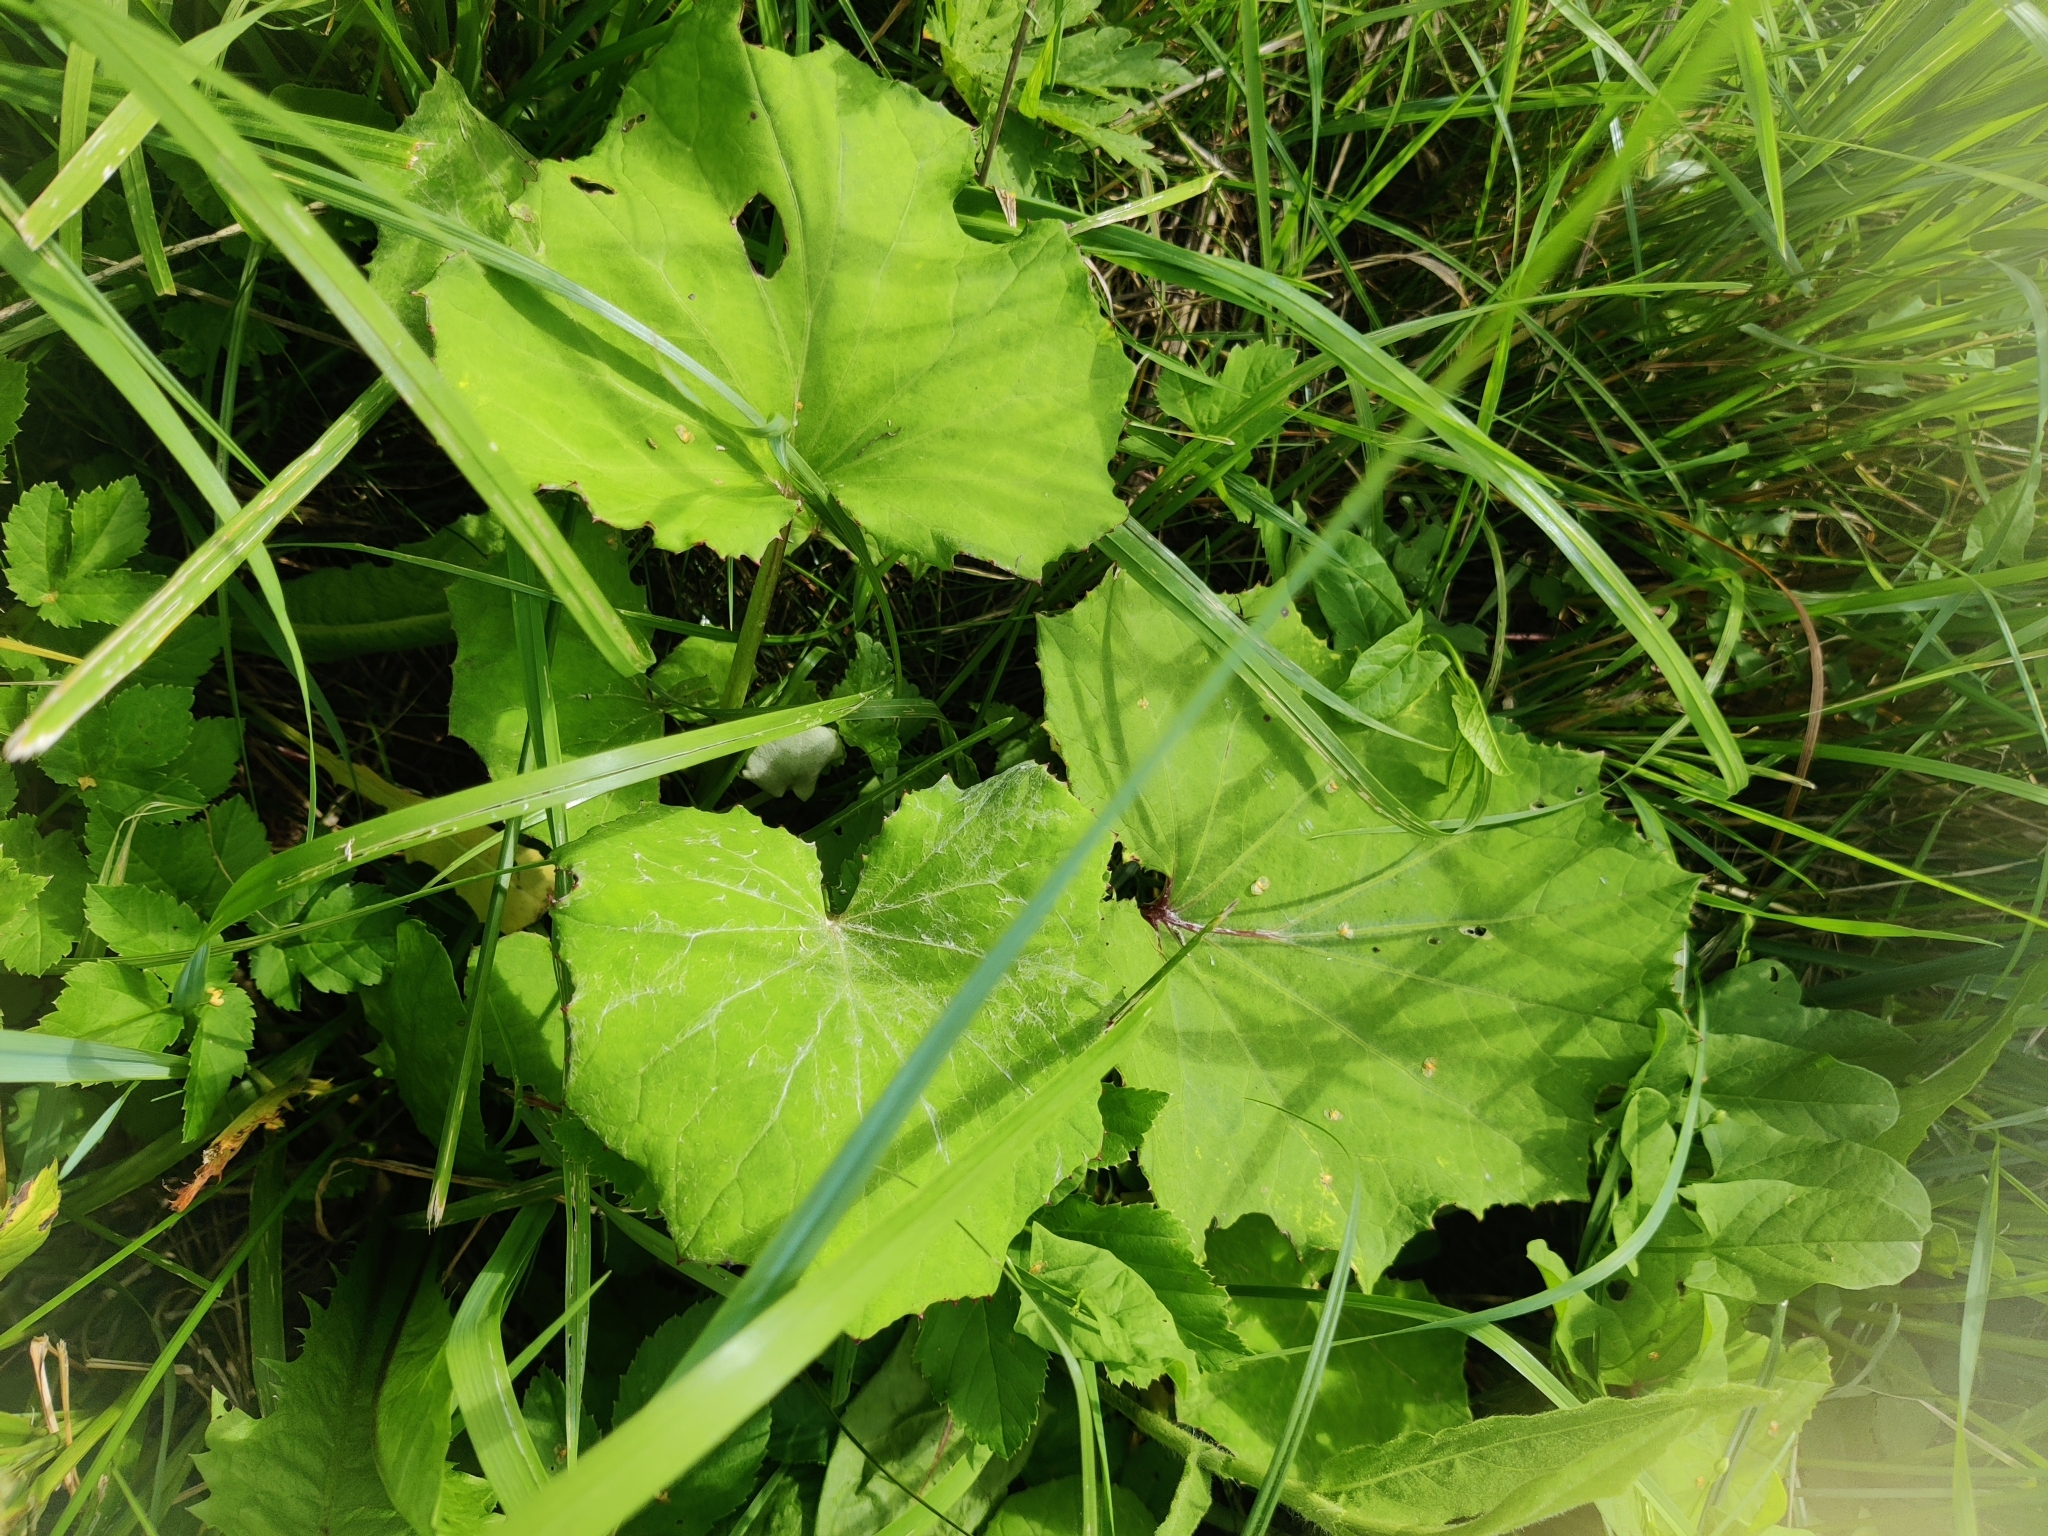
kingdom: Plantae
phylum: Tracheophyta
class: Magnoliopsida
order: Asterales
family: Asteraceae
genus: Tussilago
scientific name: Tussilago farfara
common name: Coltsfoot
